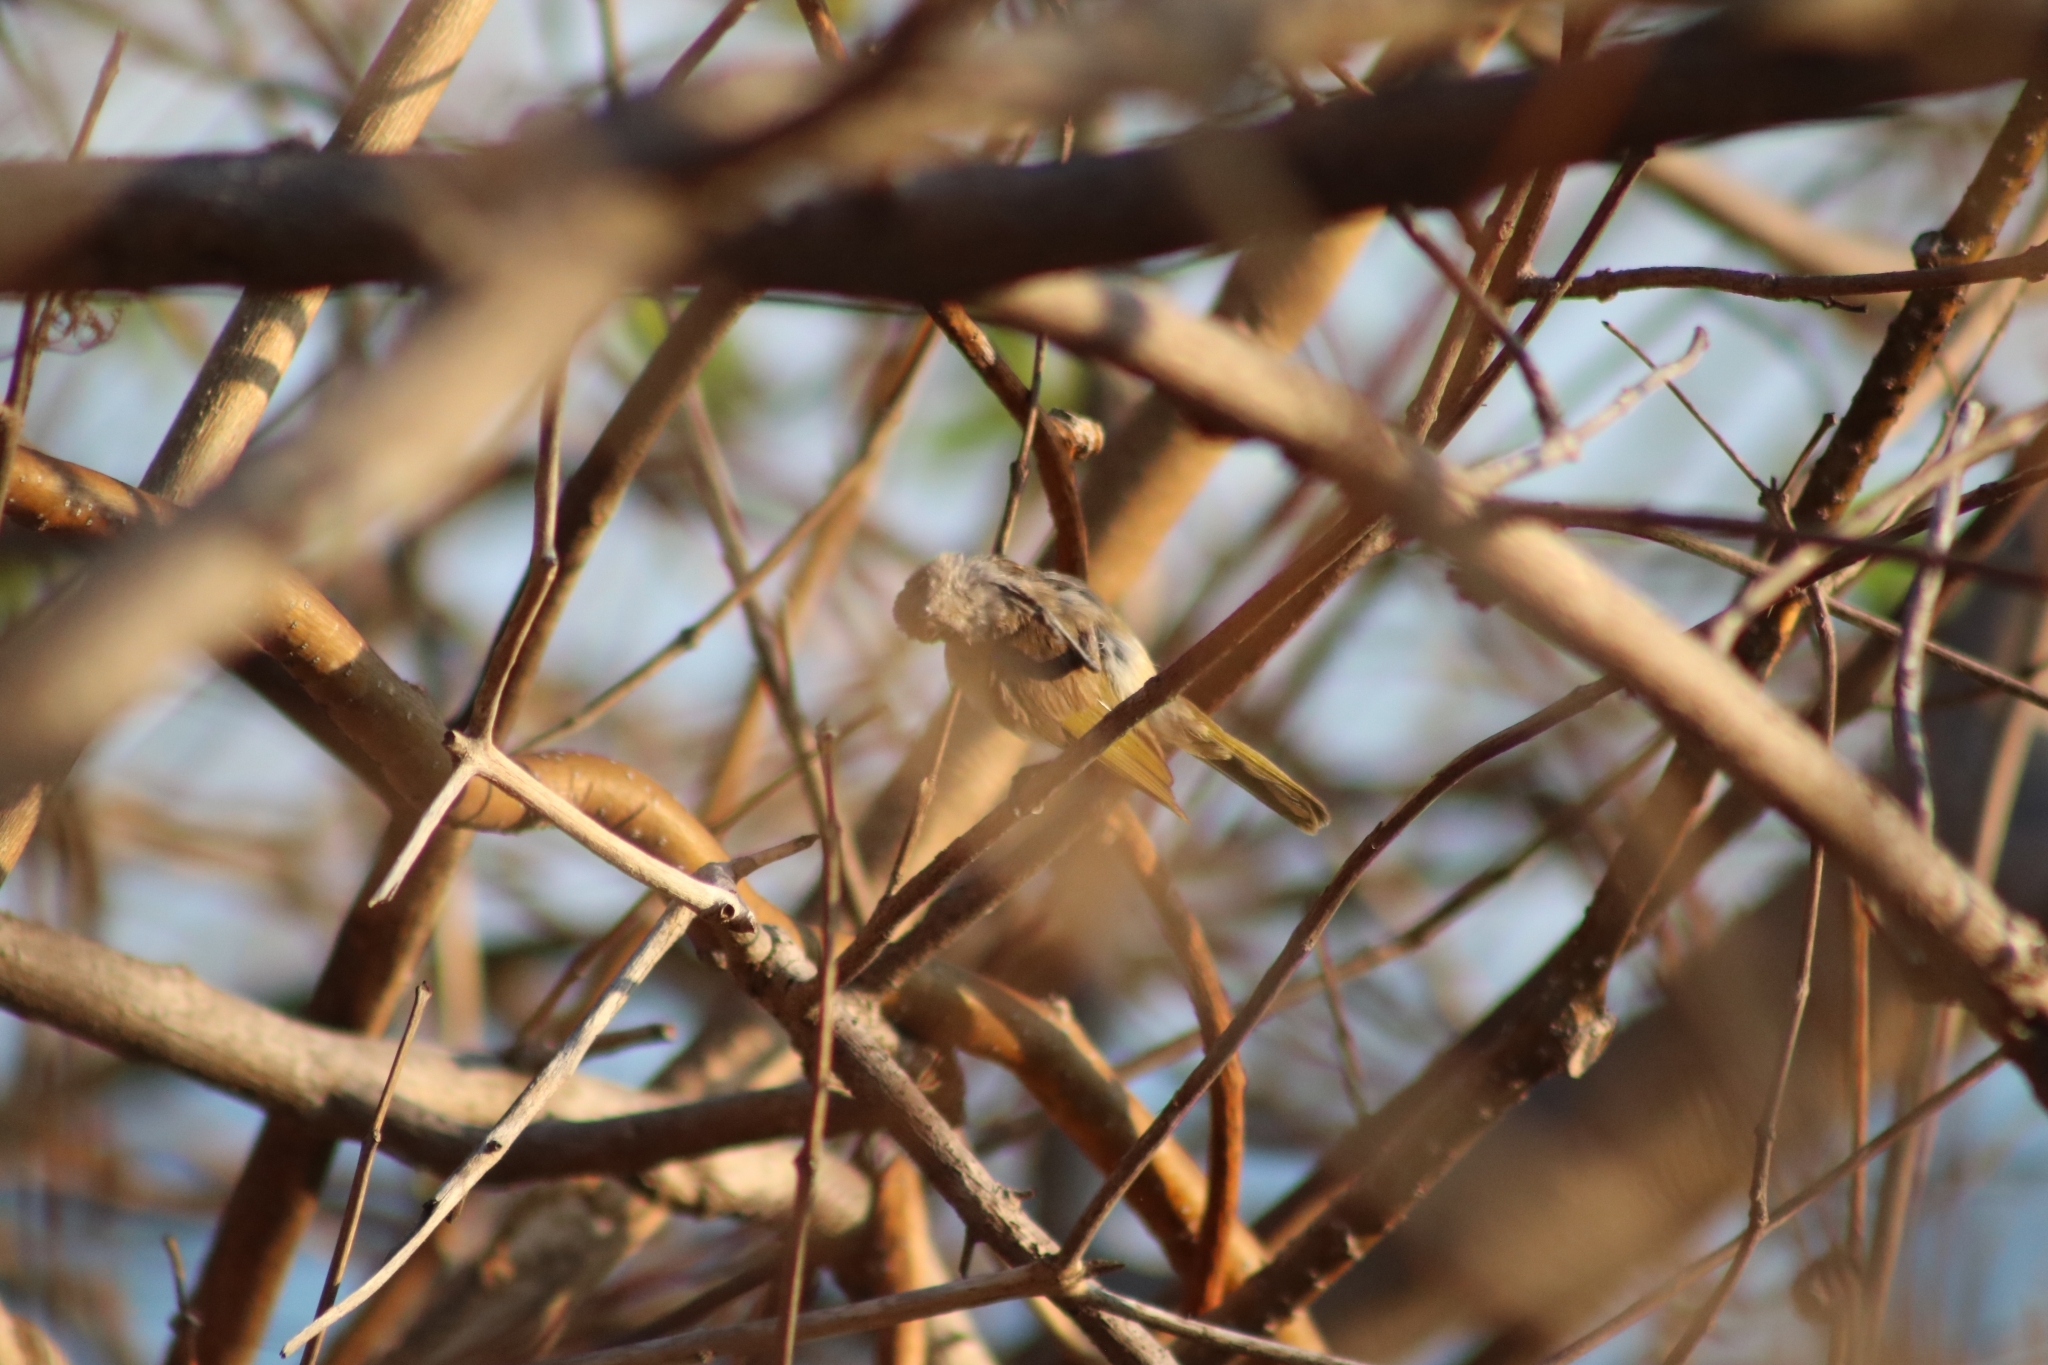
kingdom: Animalia
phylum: Chordata
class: Aves
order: Passeriformes
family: Meliphagidae
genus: Lichmera
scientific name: Lichmera indistincta
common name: Brown honeyeater
